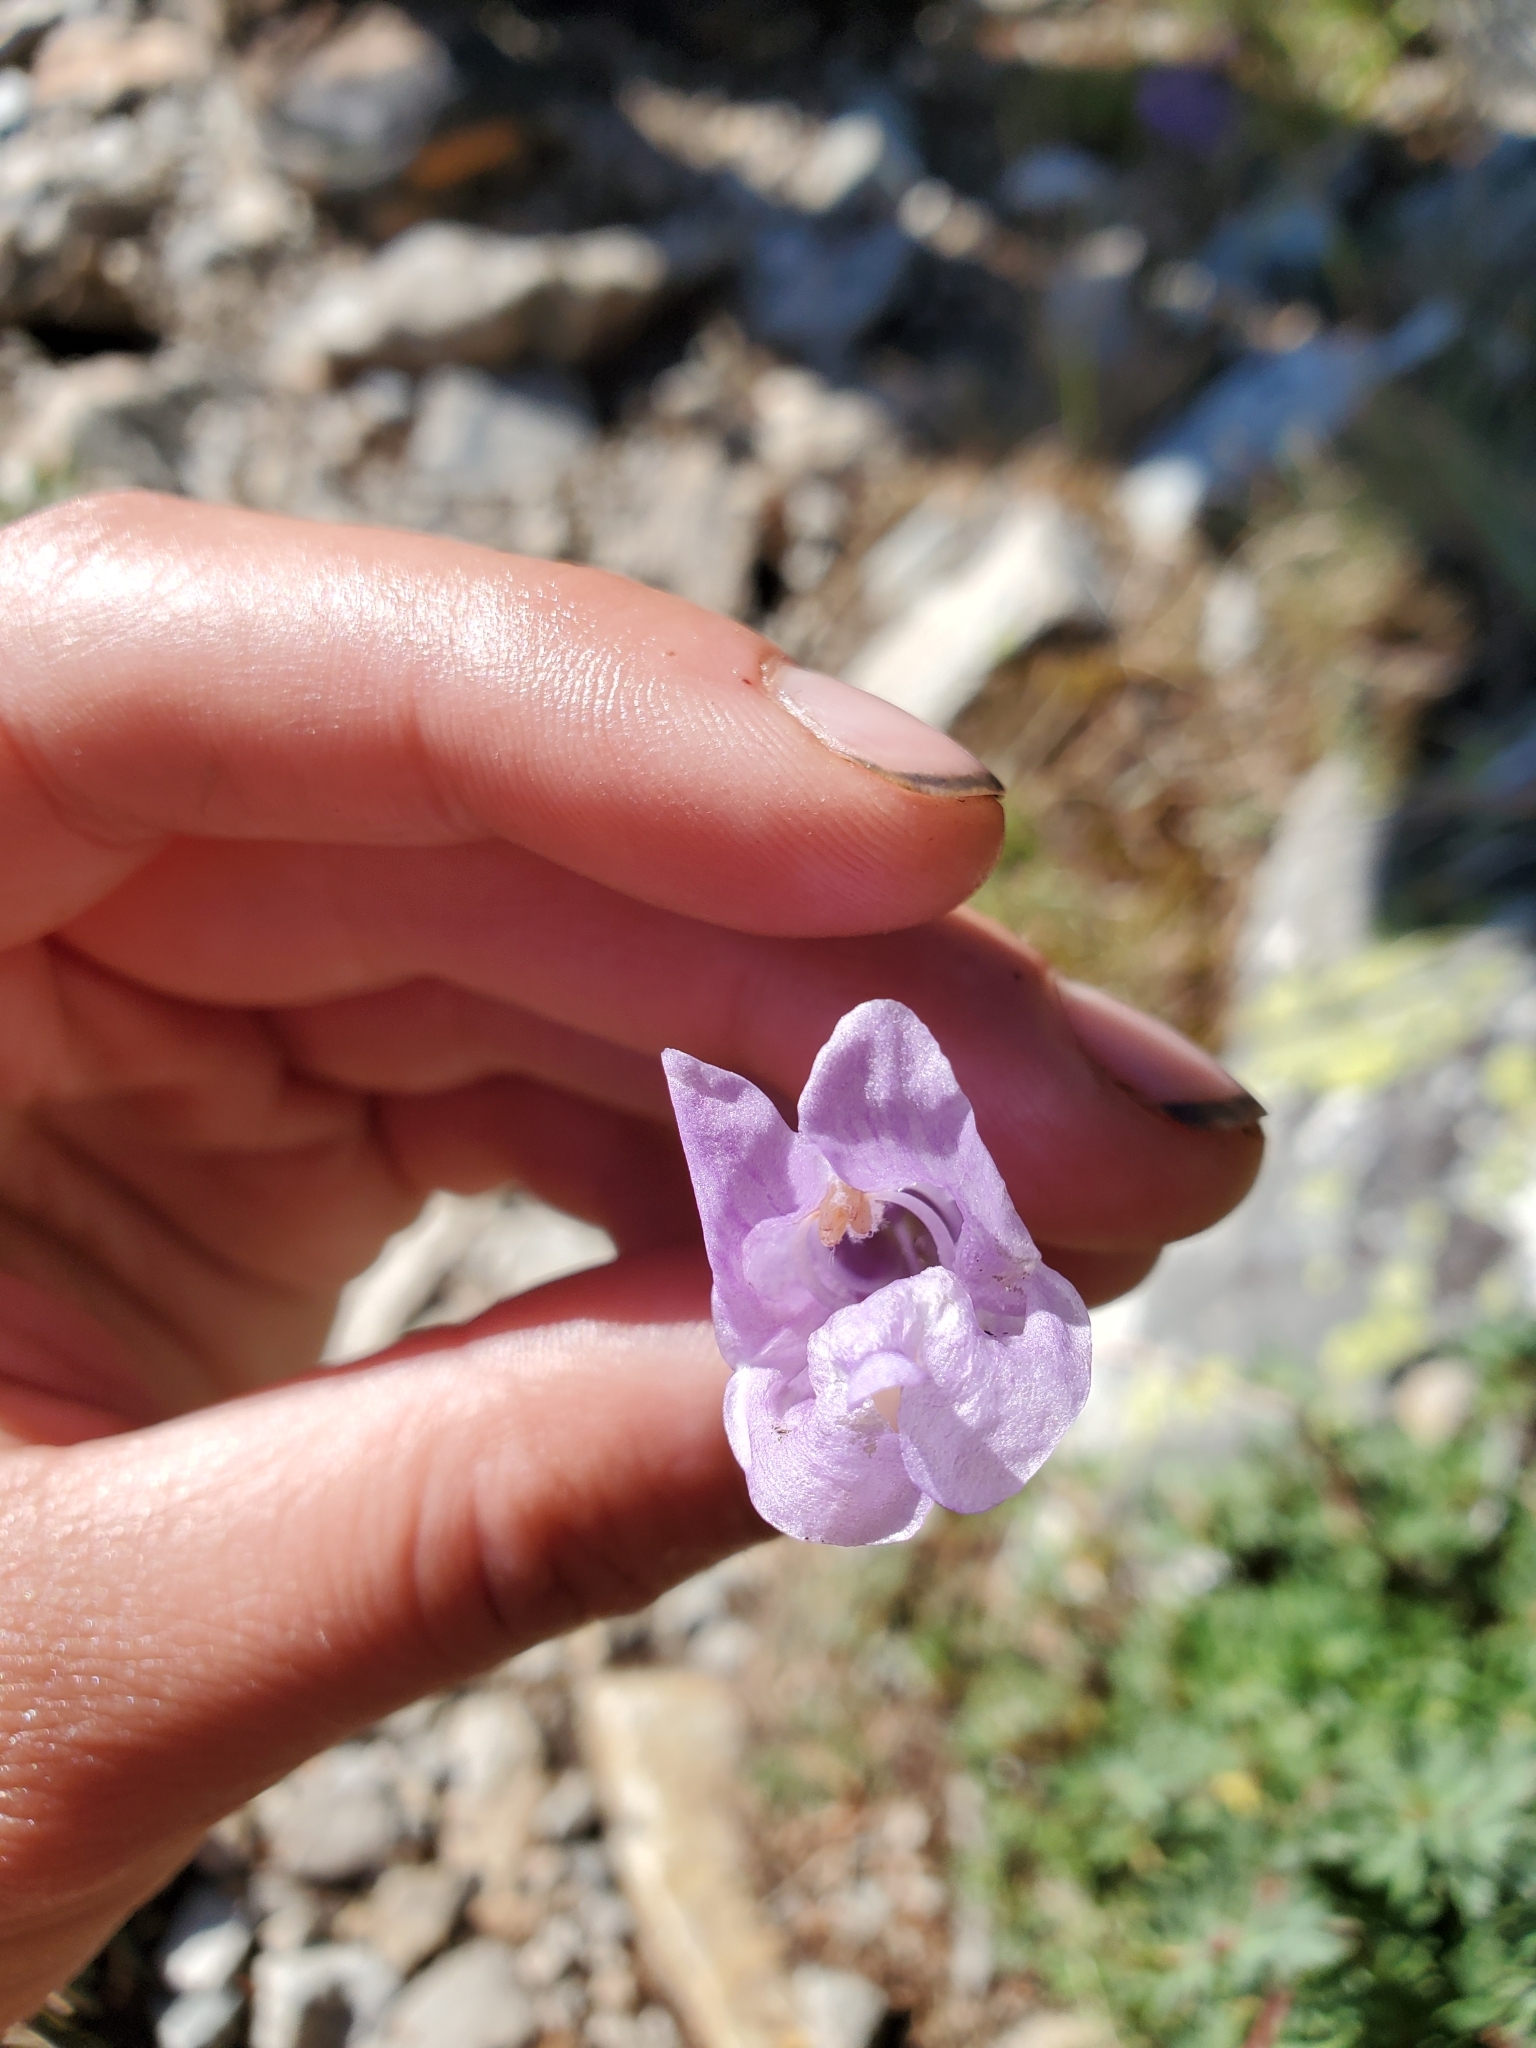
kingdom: Plantae
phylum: Tracheophyta
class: Magnoliopsida
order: Lamiales
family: Plantaginaceae
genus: Penstemon
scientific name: Penstemon ellipticus
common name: Alpine beardtongue
